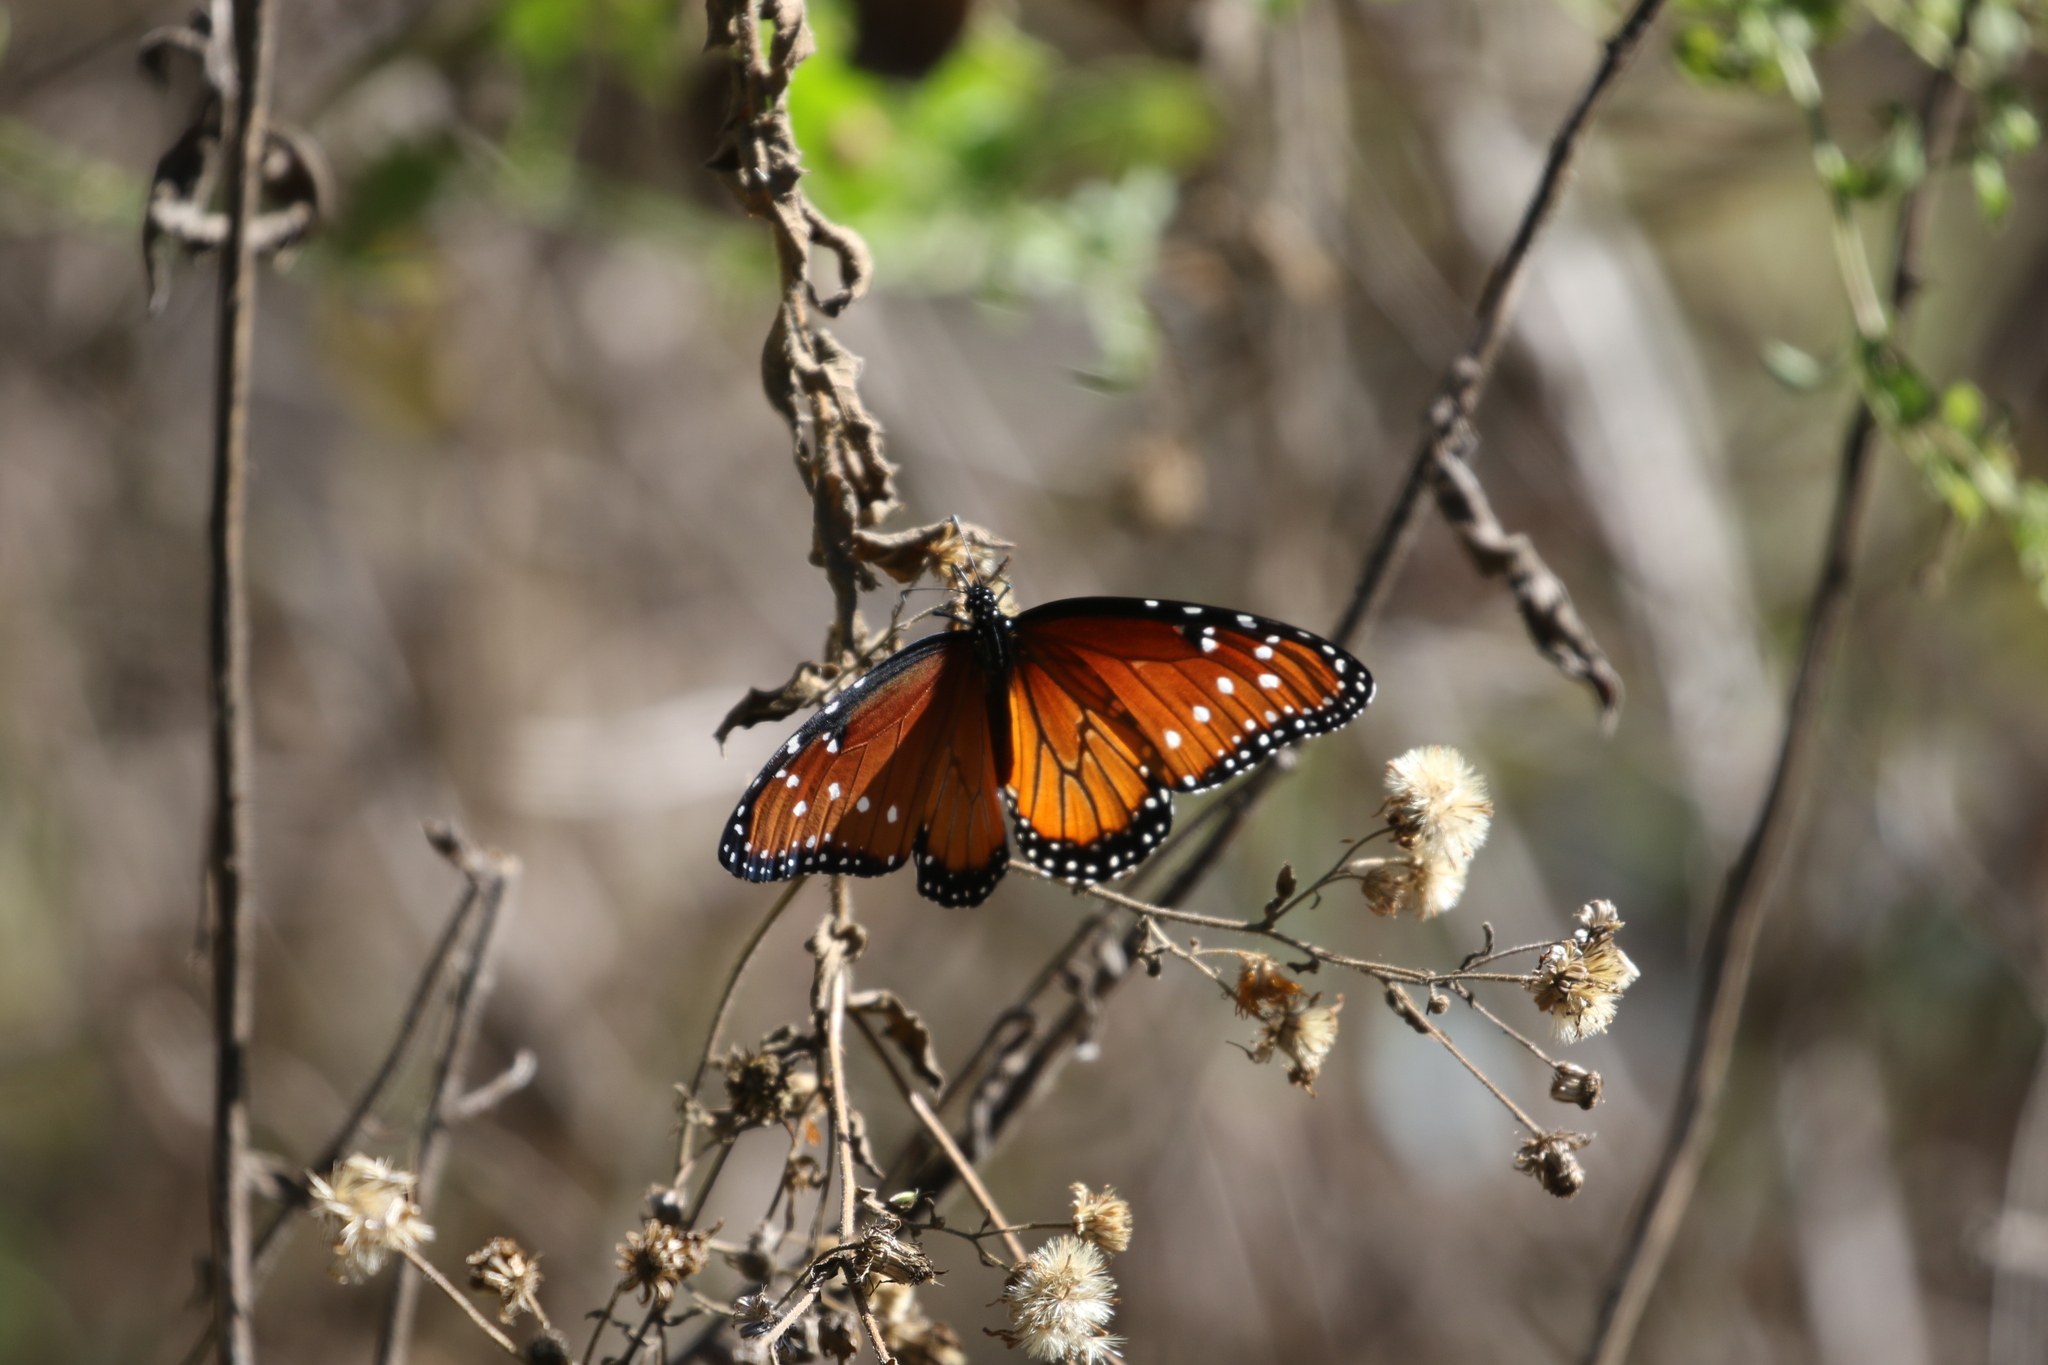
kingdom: Animalia
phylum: Arthropoda
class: Insecta
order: Lepidoptera
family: Nymphalidae
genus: Danaus
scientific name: Danaus gilippus
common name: Queen
